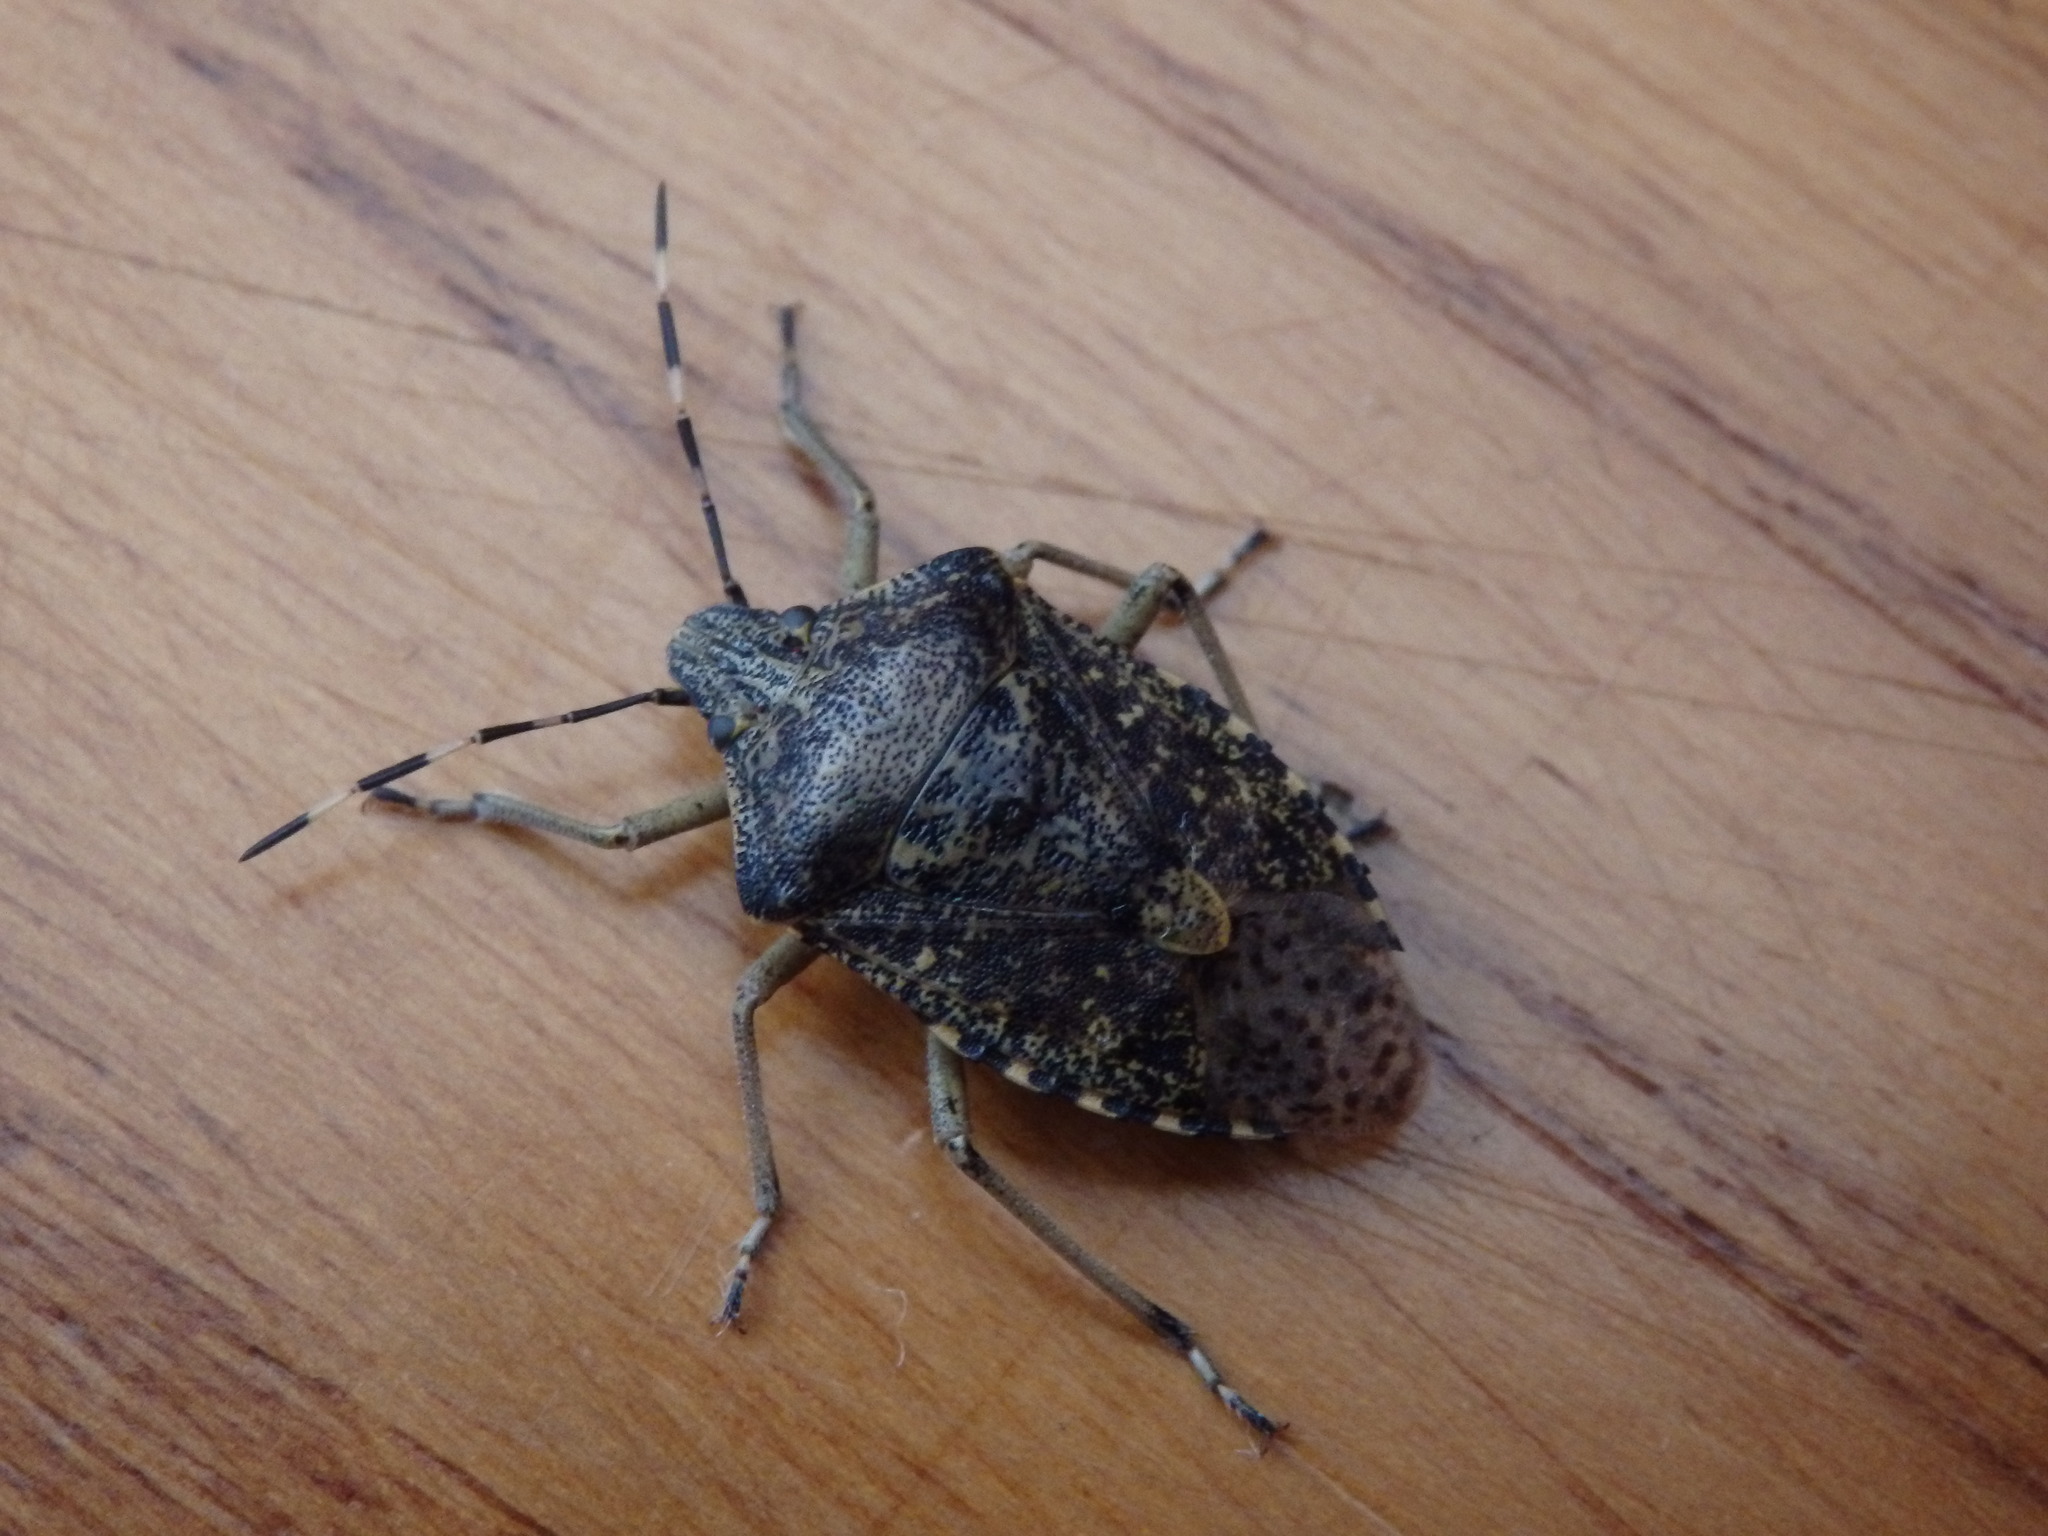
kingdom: Animalia
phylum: Arthropoda
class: Insecta
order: Hemiptera
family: Pentatomidae
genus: Rhaphigaster
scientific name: Rhaphigaster nebulosa
